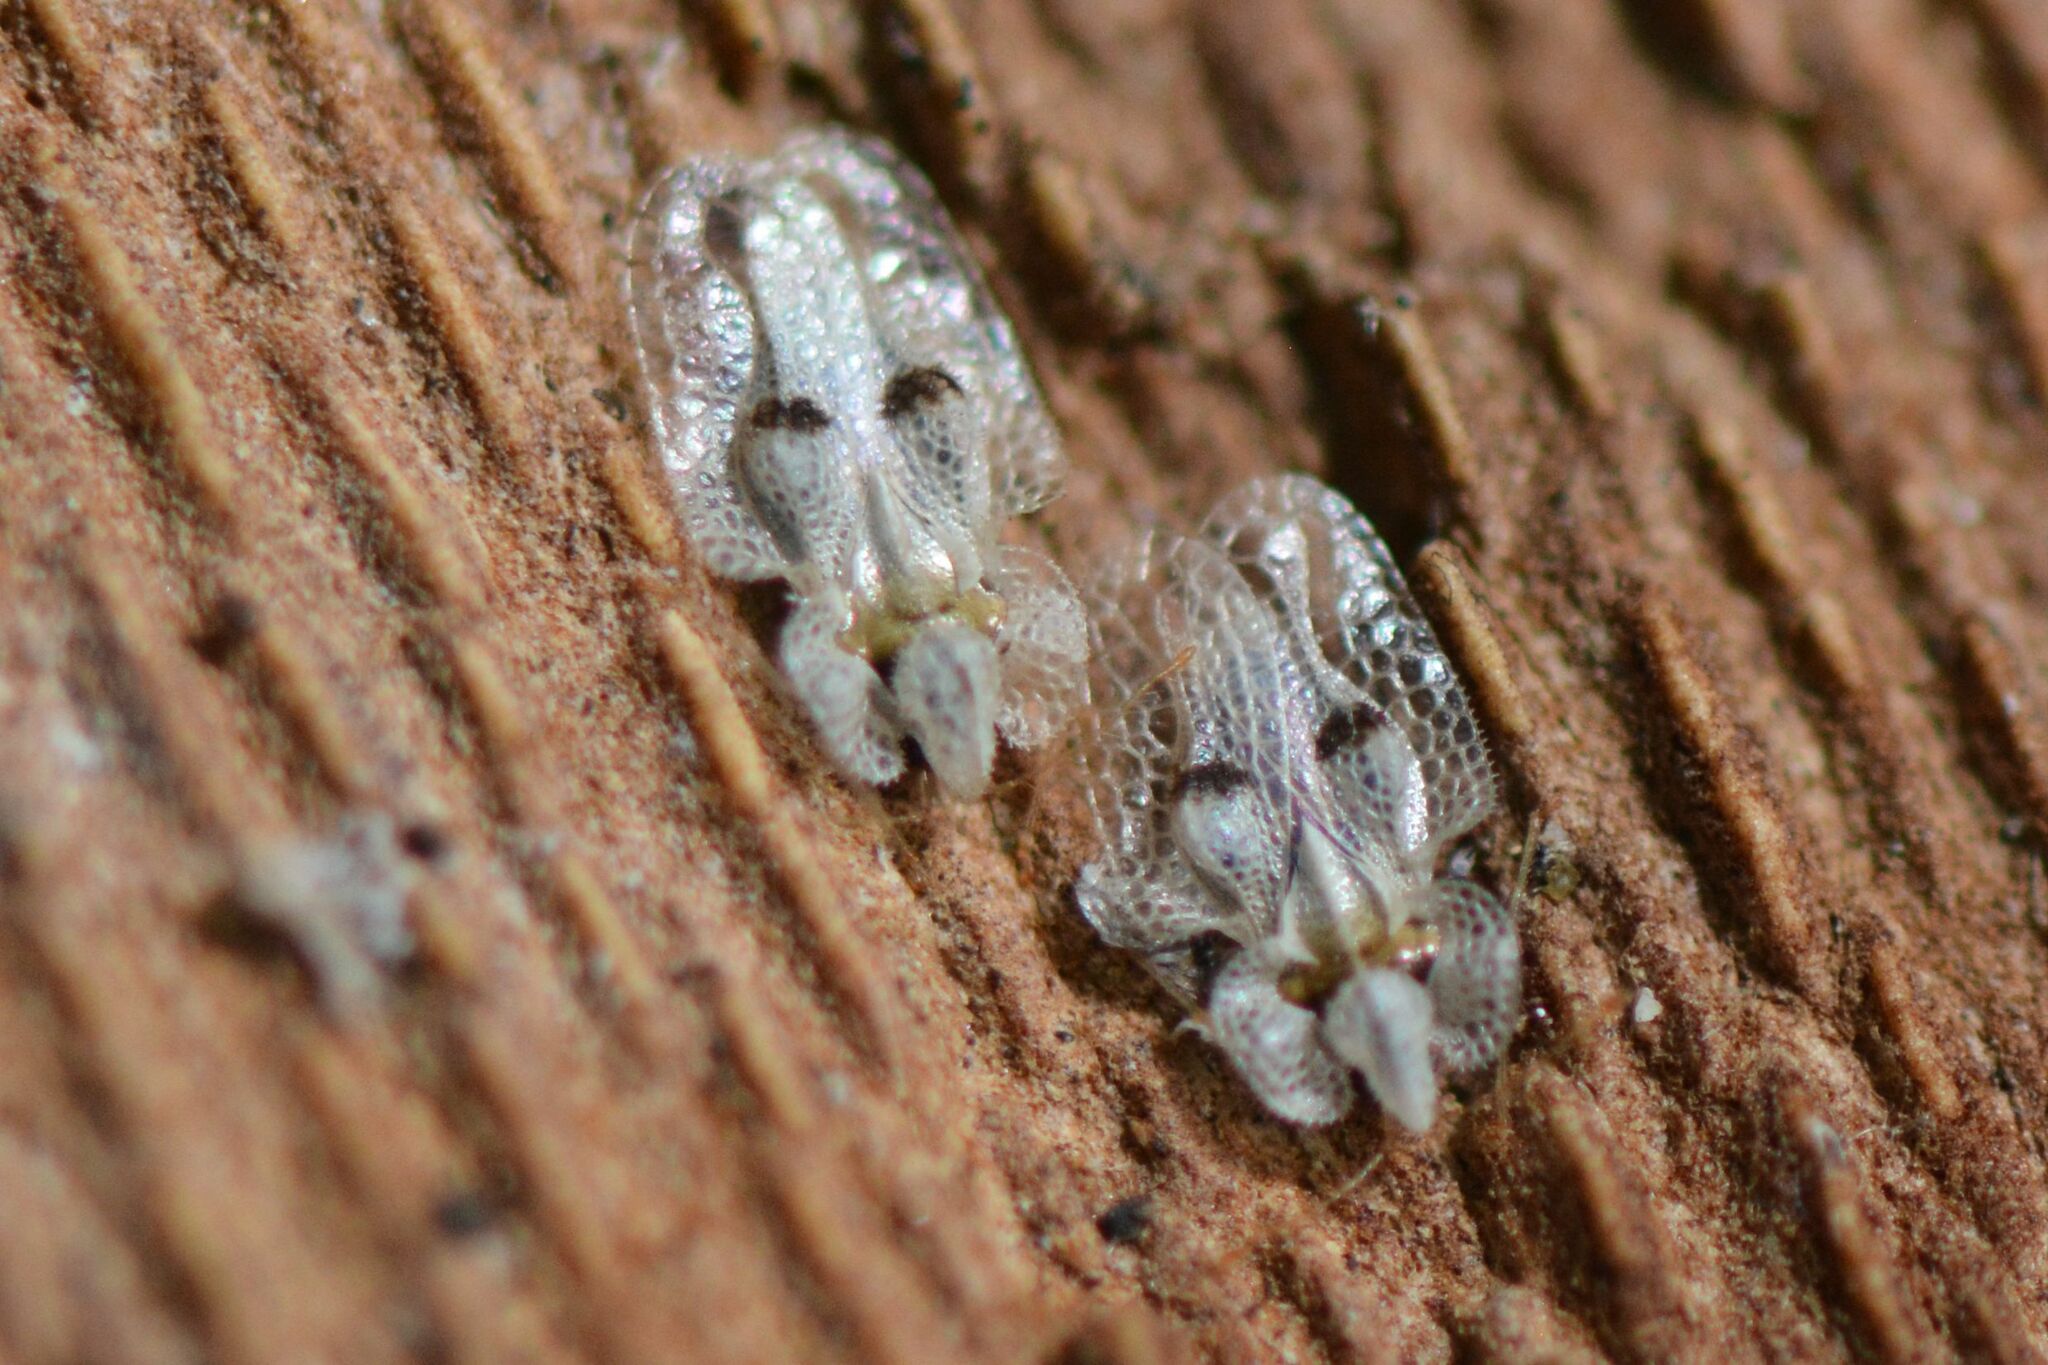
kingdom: Animalia
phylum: Arthropoda
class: Insecta
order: Hemiptera
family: Tingidae
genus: Corythucha
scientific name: Corythucha ciliata
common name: Sycamore lace bug
